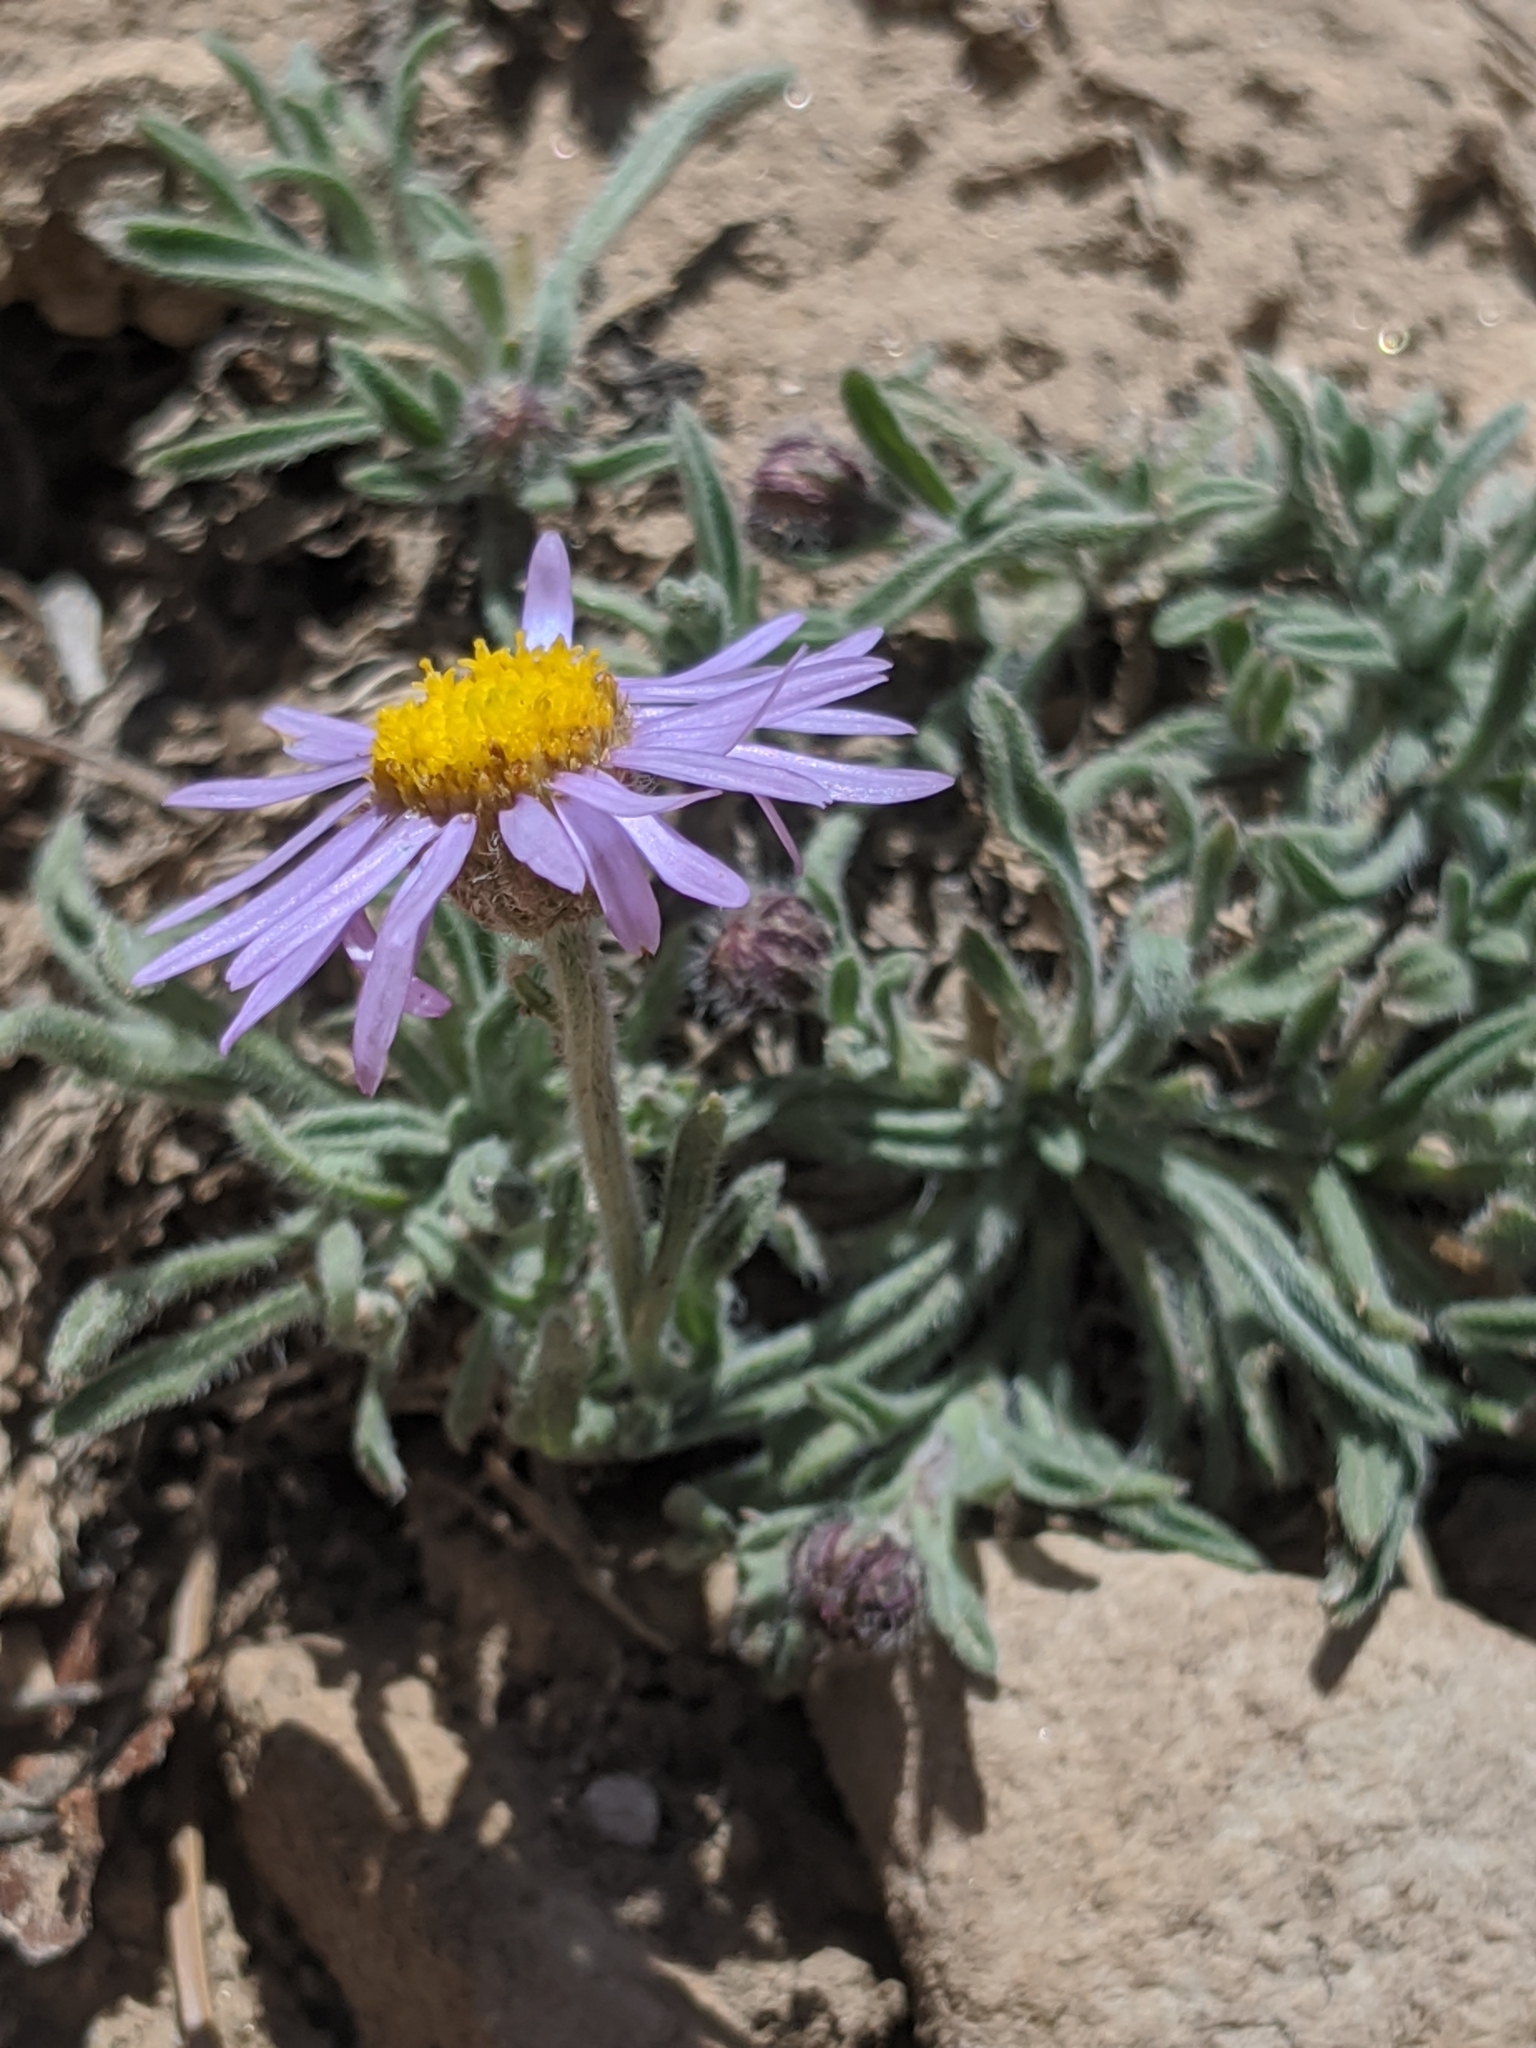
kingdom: Plantae
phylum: Tracheophyta
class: Magnoliopsida
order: Asterales
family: Asteraceae
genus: Erigeron
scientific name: Erigeron clokeyi
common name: Clokey's fleabane
